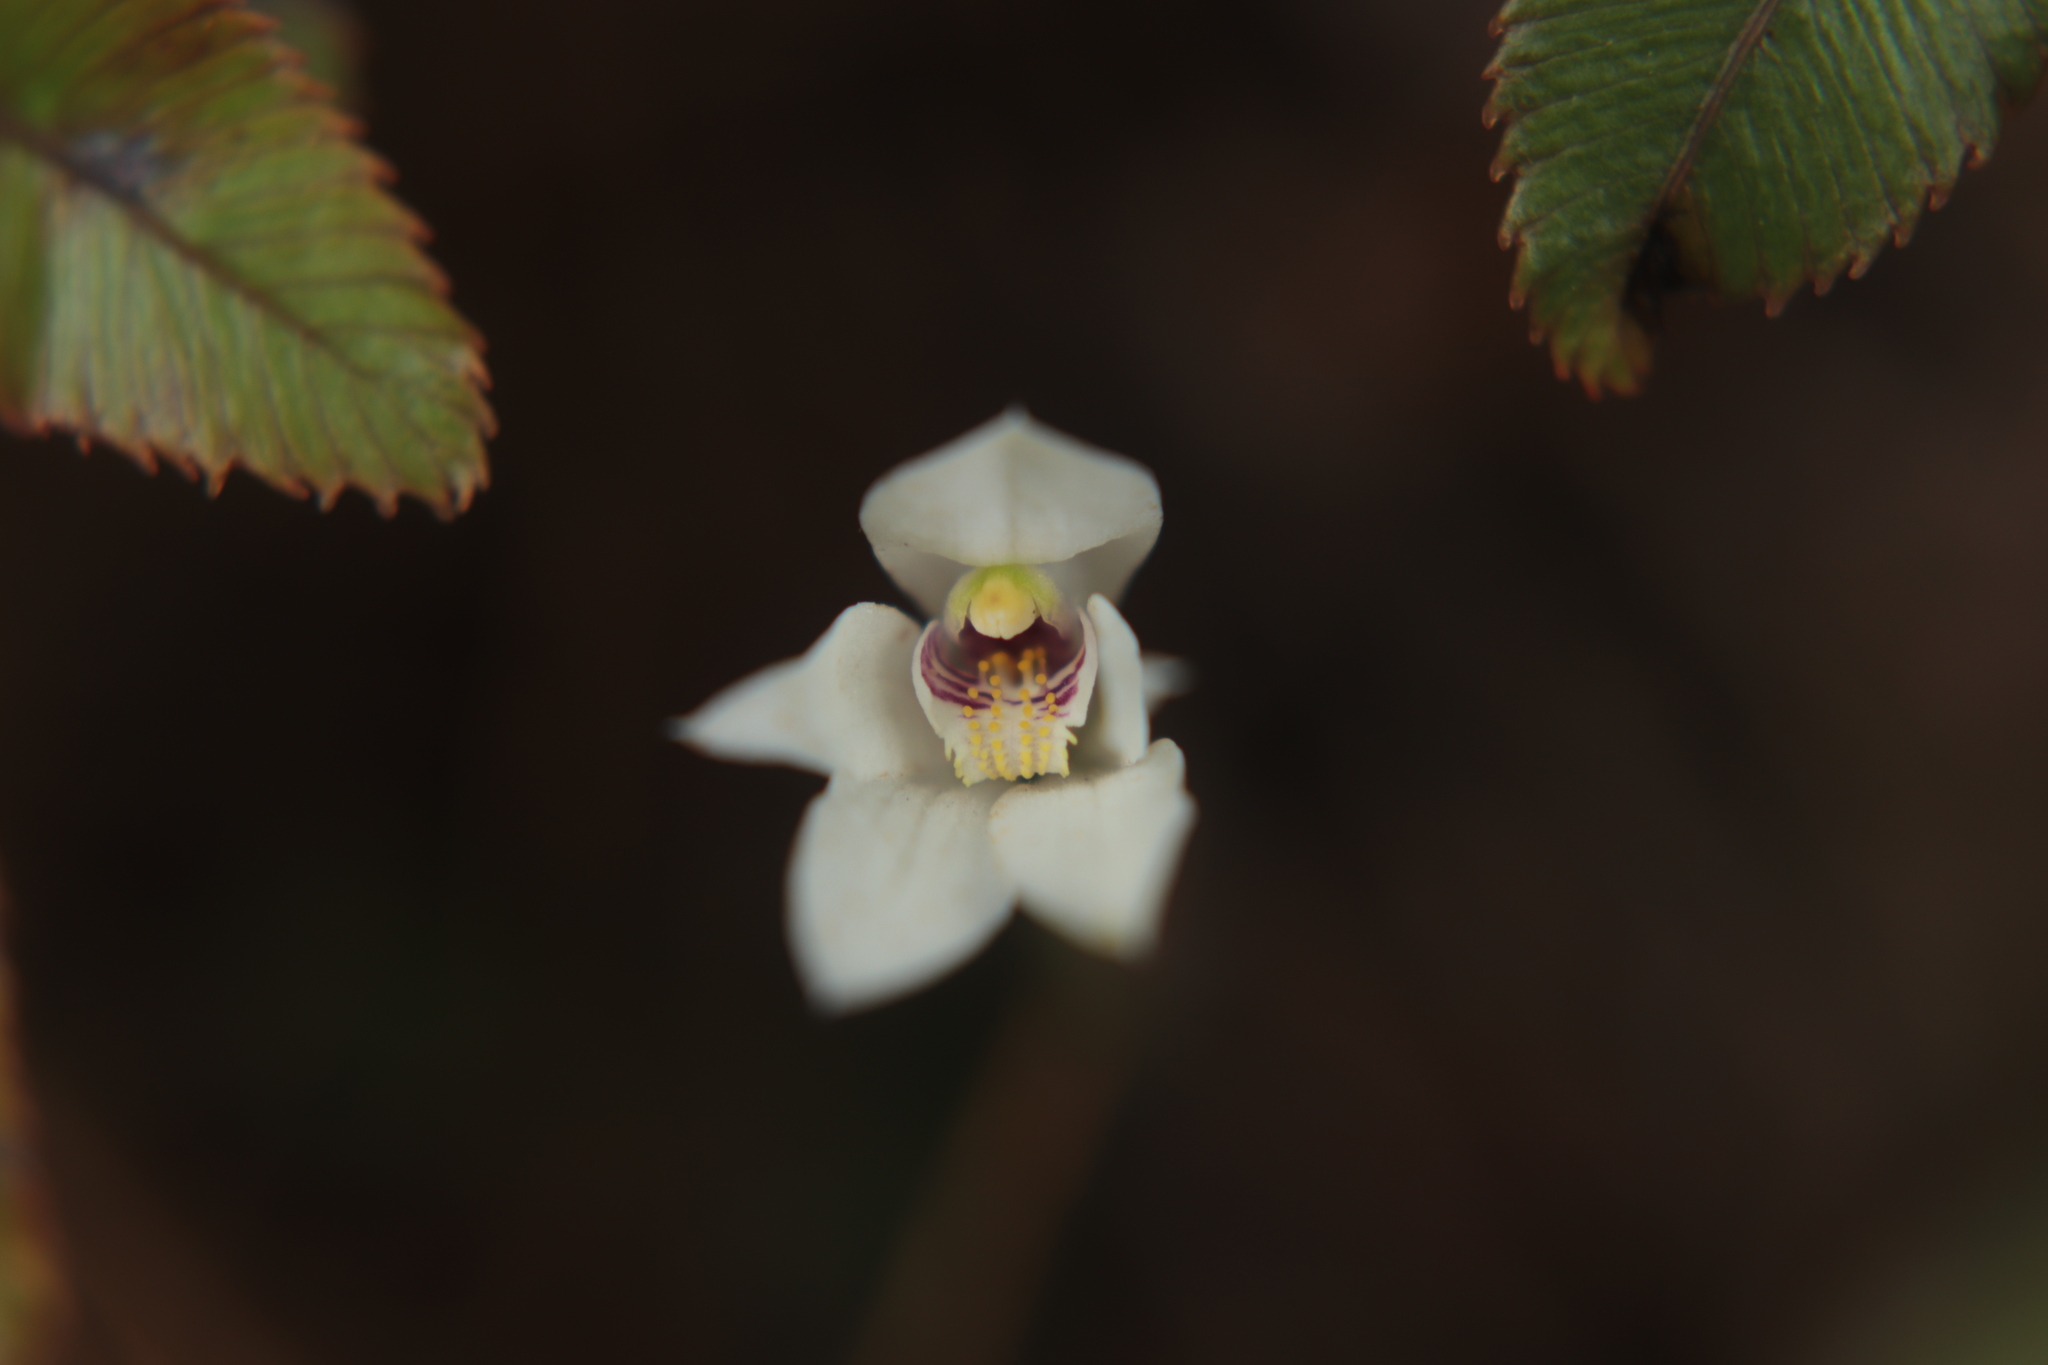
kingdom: Plantae
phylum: Tracheophyta
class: Liliopsida
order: Asparagales
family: Orchidaceae
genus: Caladenia
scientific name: Caladenia lyallii
